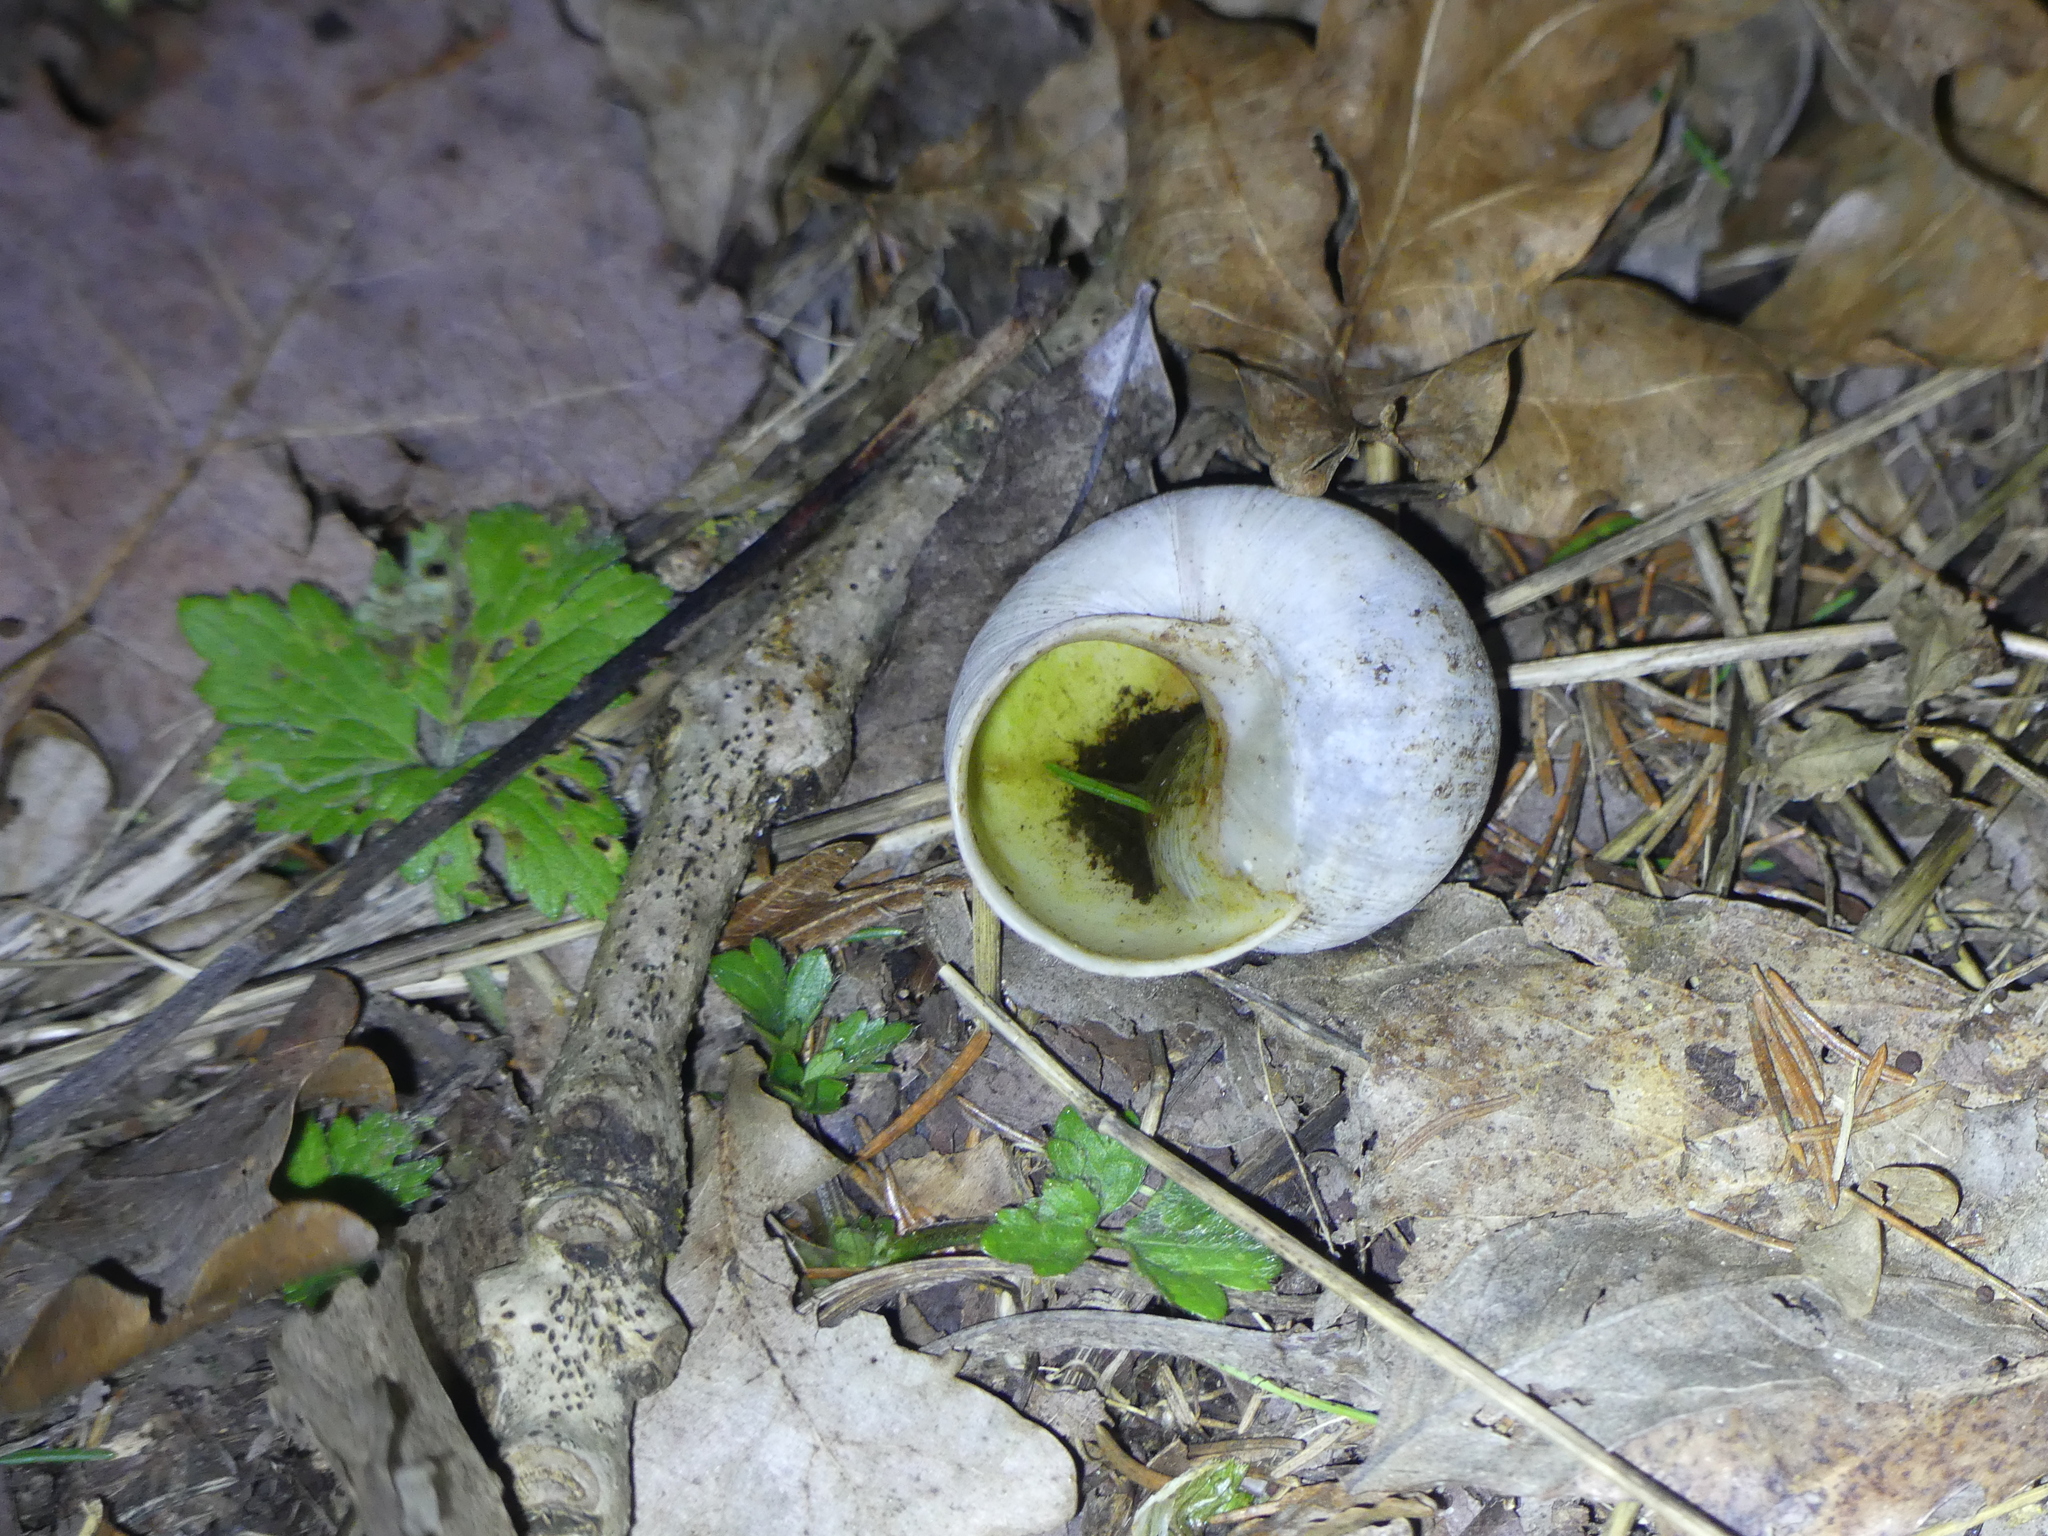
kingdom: Animalia
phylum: Mollusca
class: Gastropoda
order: Stylommatophora
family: Helicidae
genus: Helix
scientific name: Helix pomatia
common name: Roman snail
